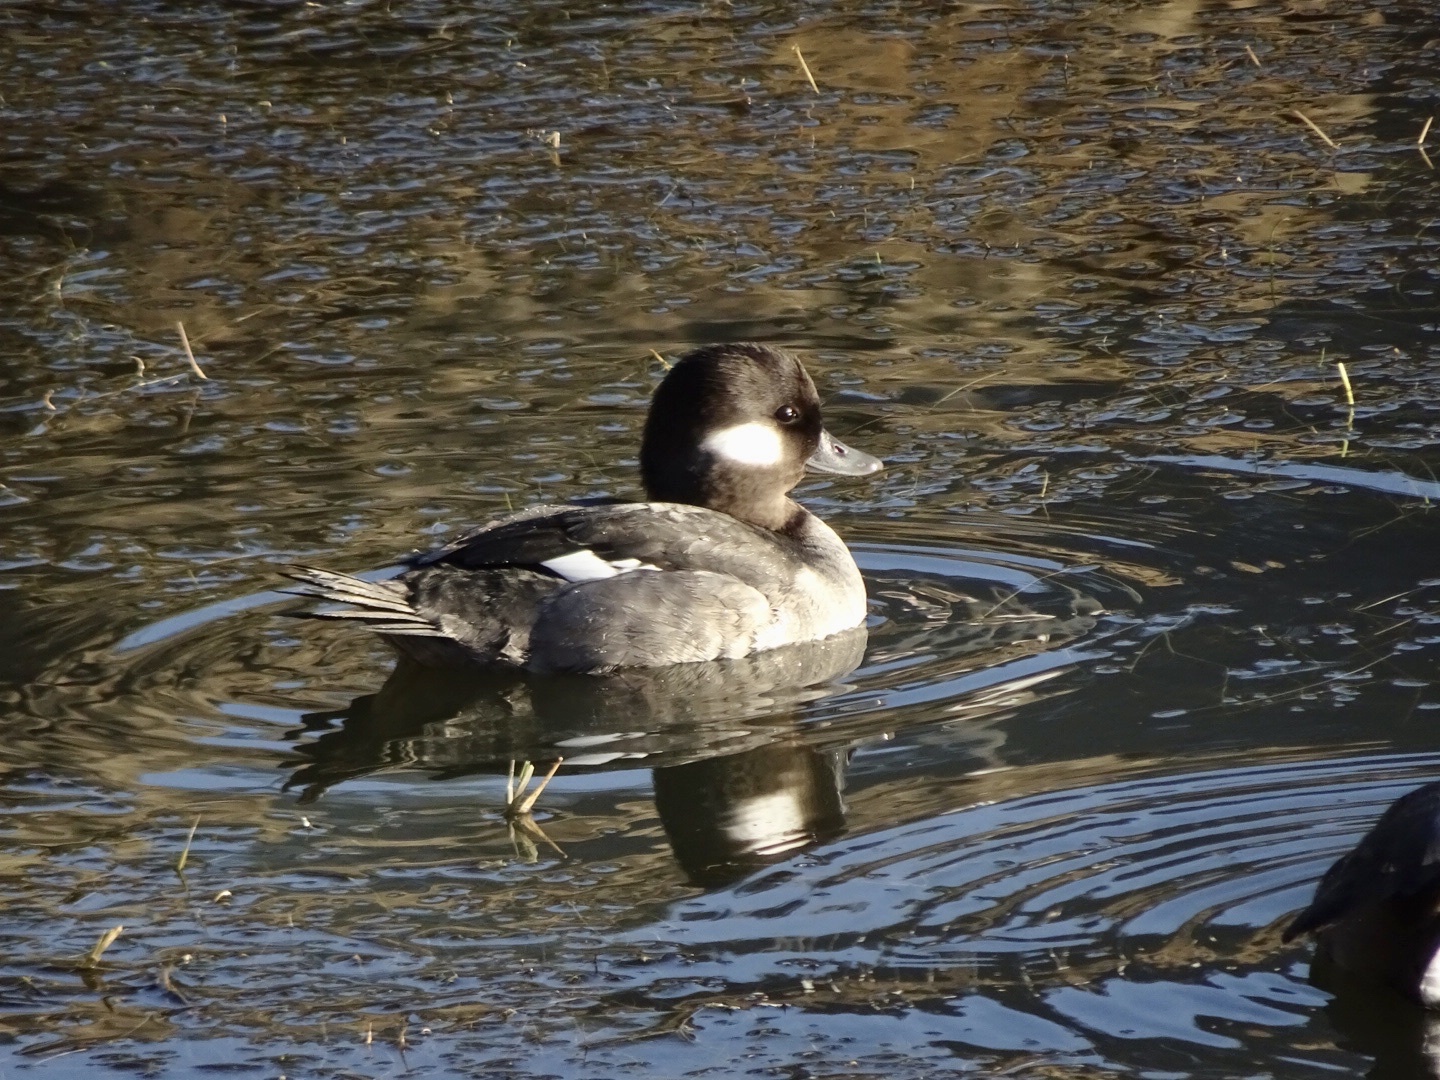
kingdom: Animalia
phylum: Chordata
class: Aves
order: Anseriformes
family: Anatidae
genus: Bucephala
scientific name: Bucephala albeola
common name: Bufflehead
